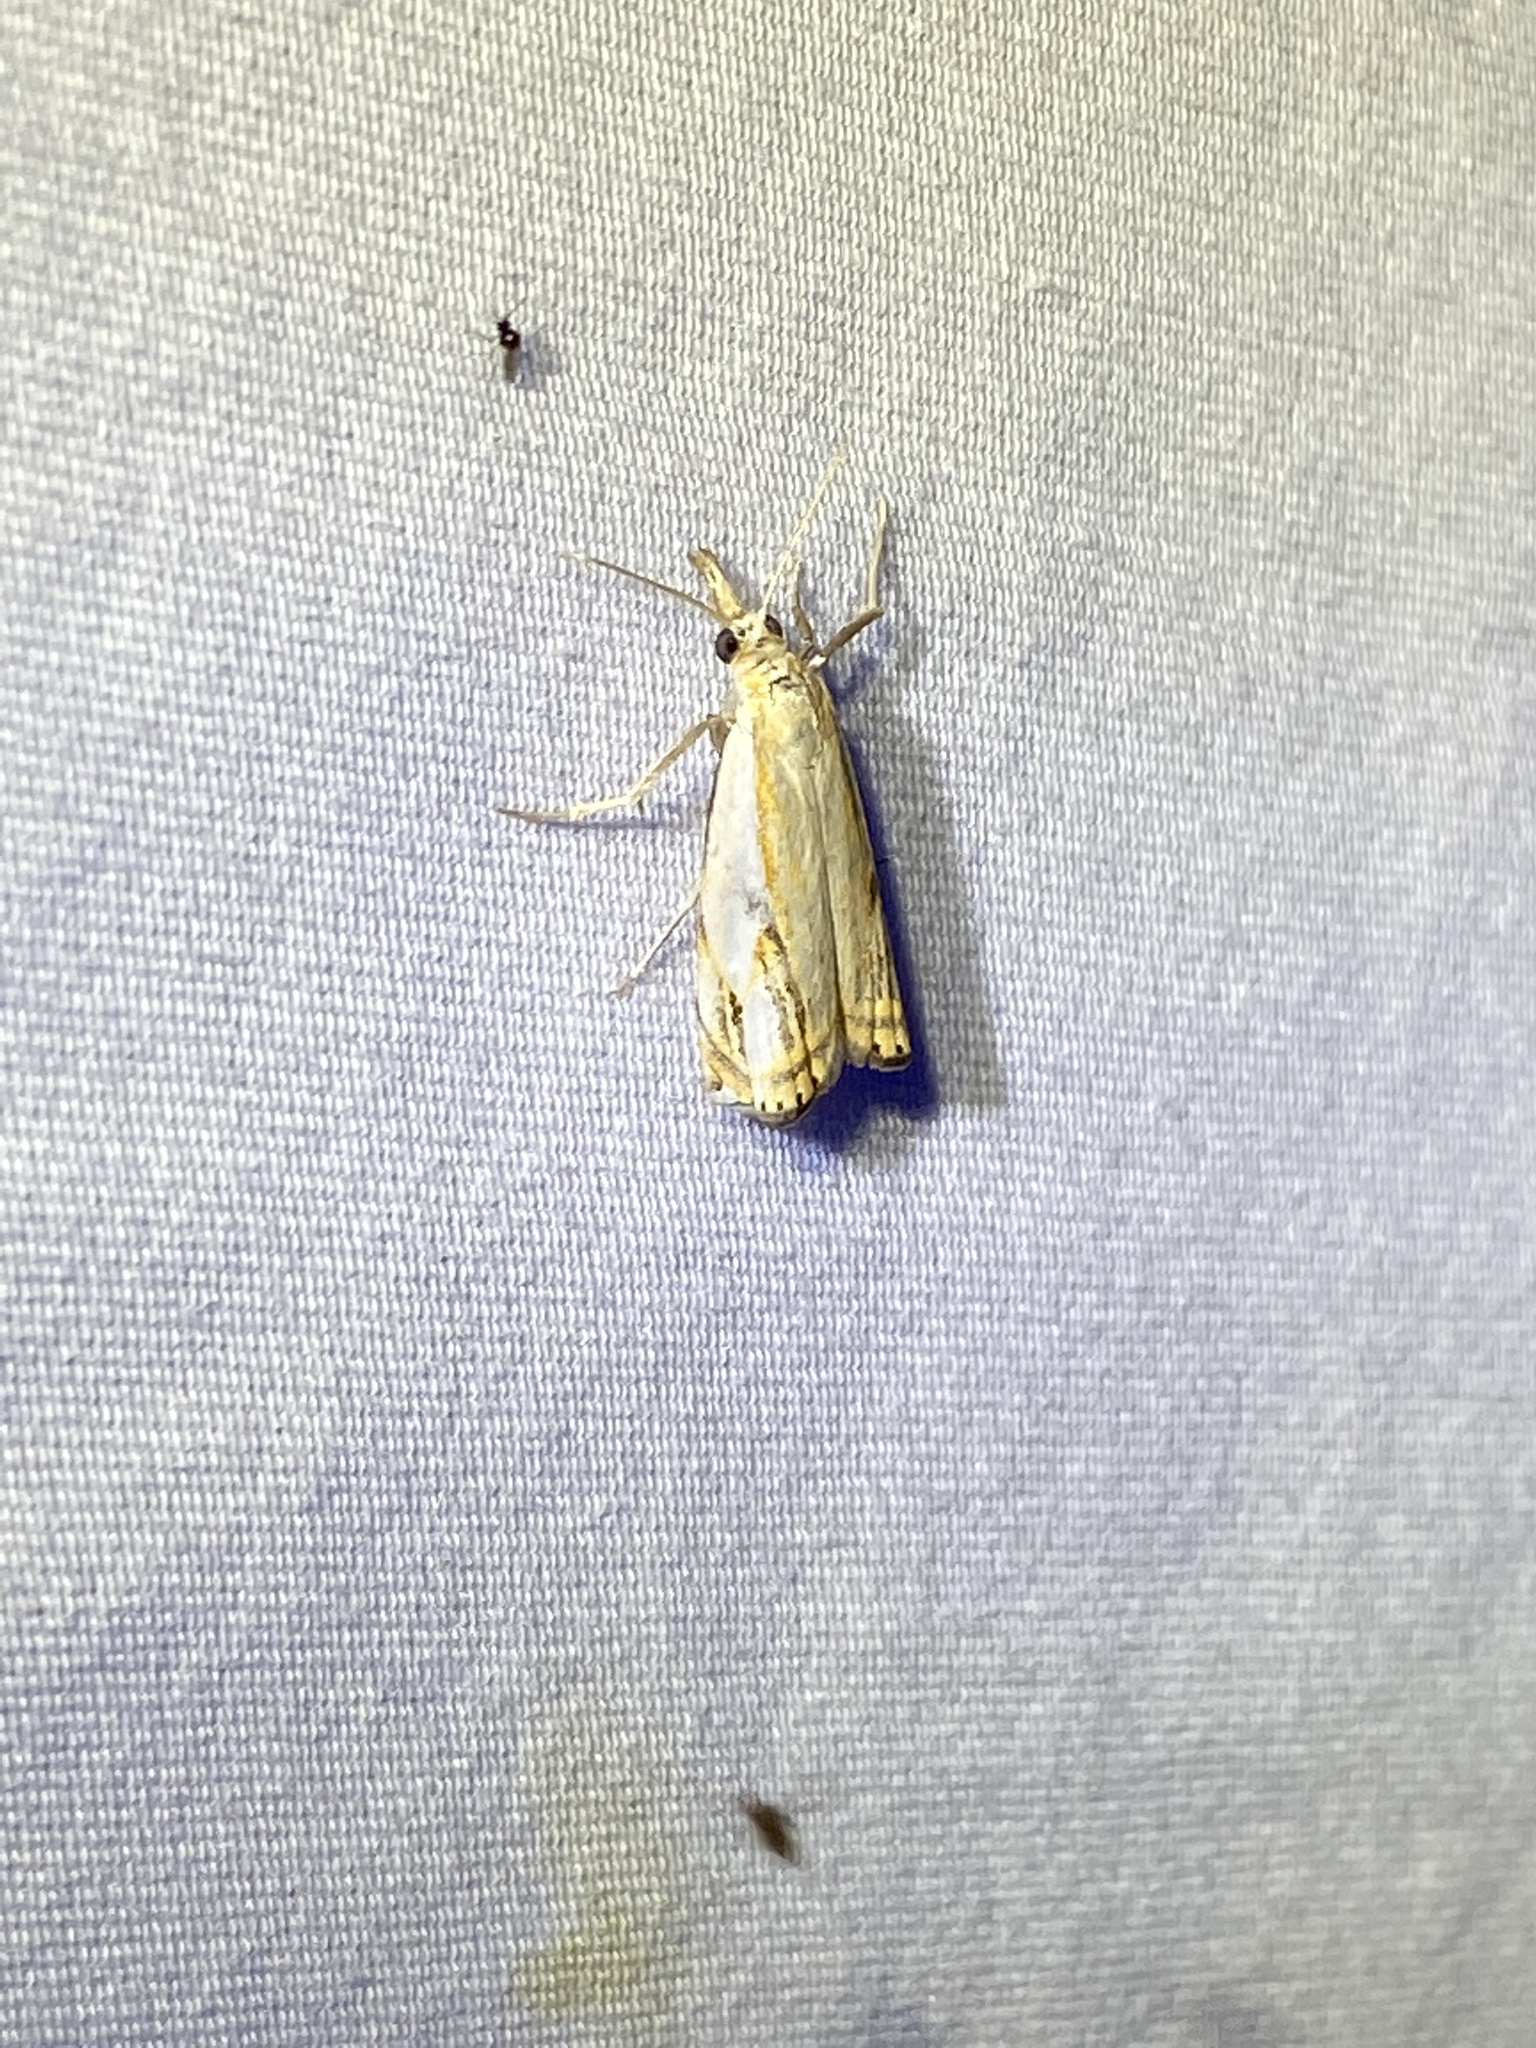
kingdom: Animalia
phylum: Arthropoda
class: Insecta
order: Lepidoptera
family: Crambidae
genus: Crambus
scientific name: Crambus agitatellus
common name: Double-banded grass-veneer
